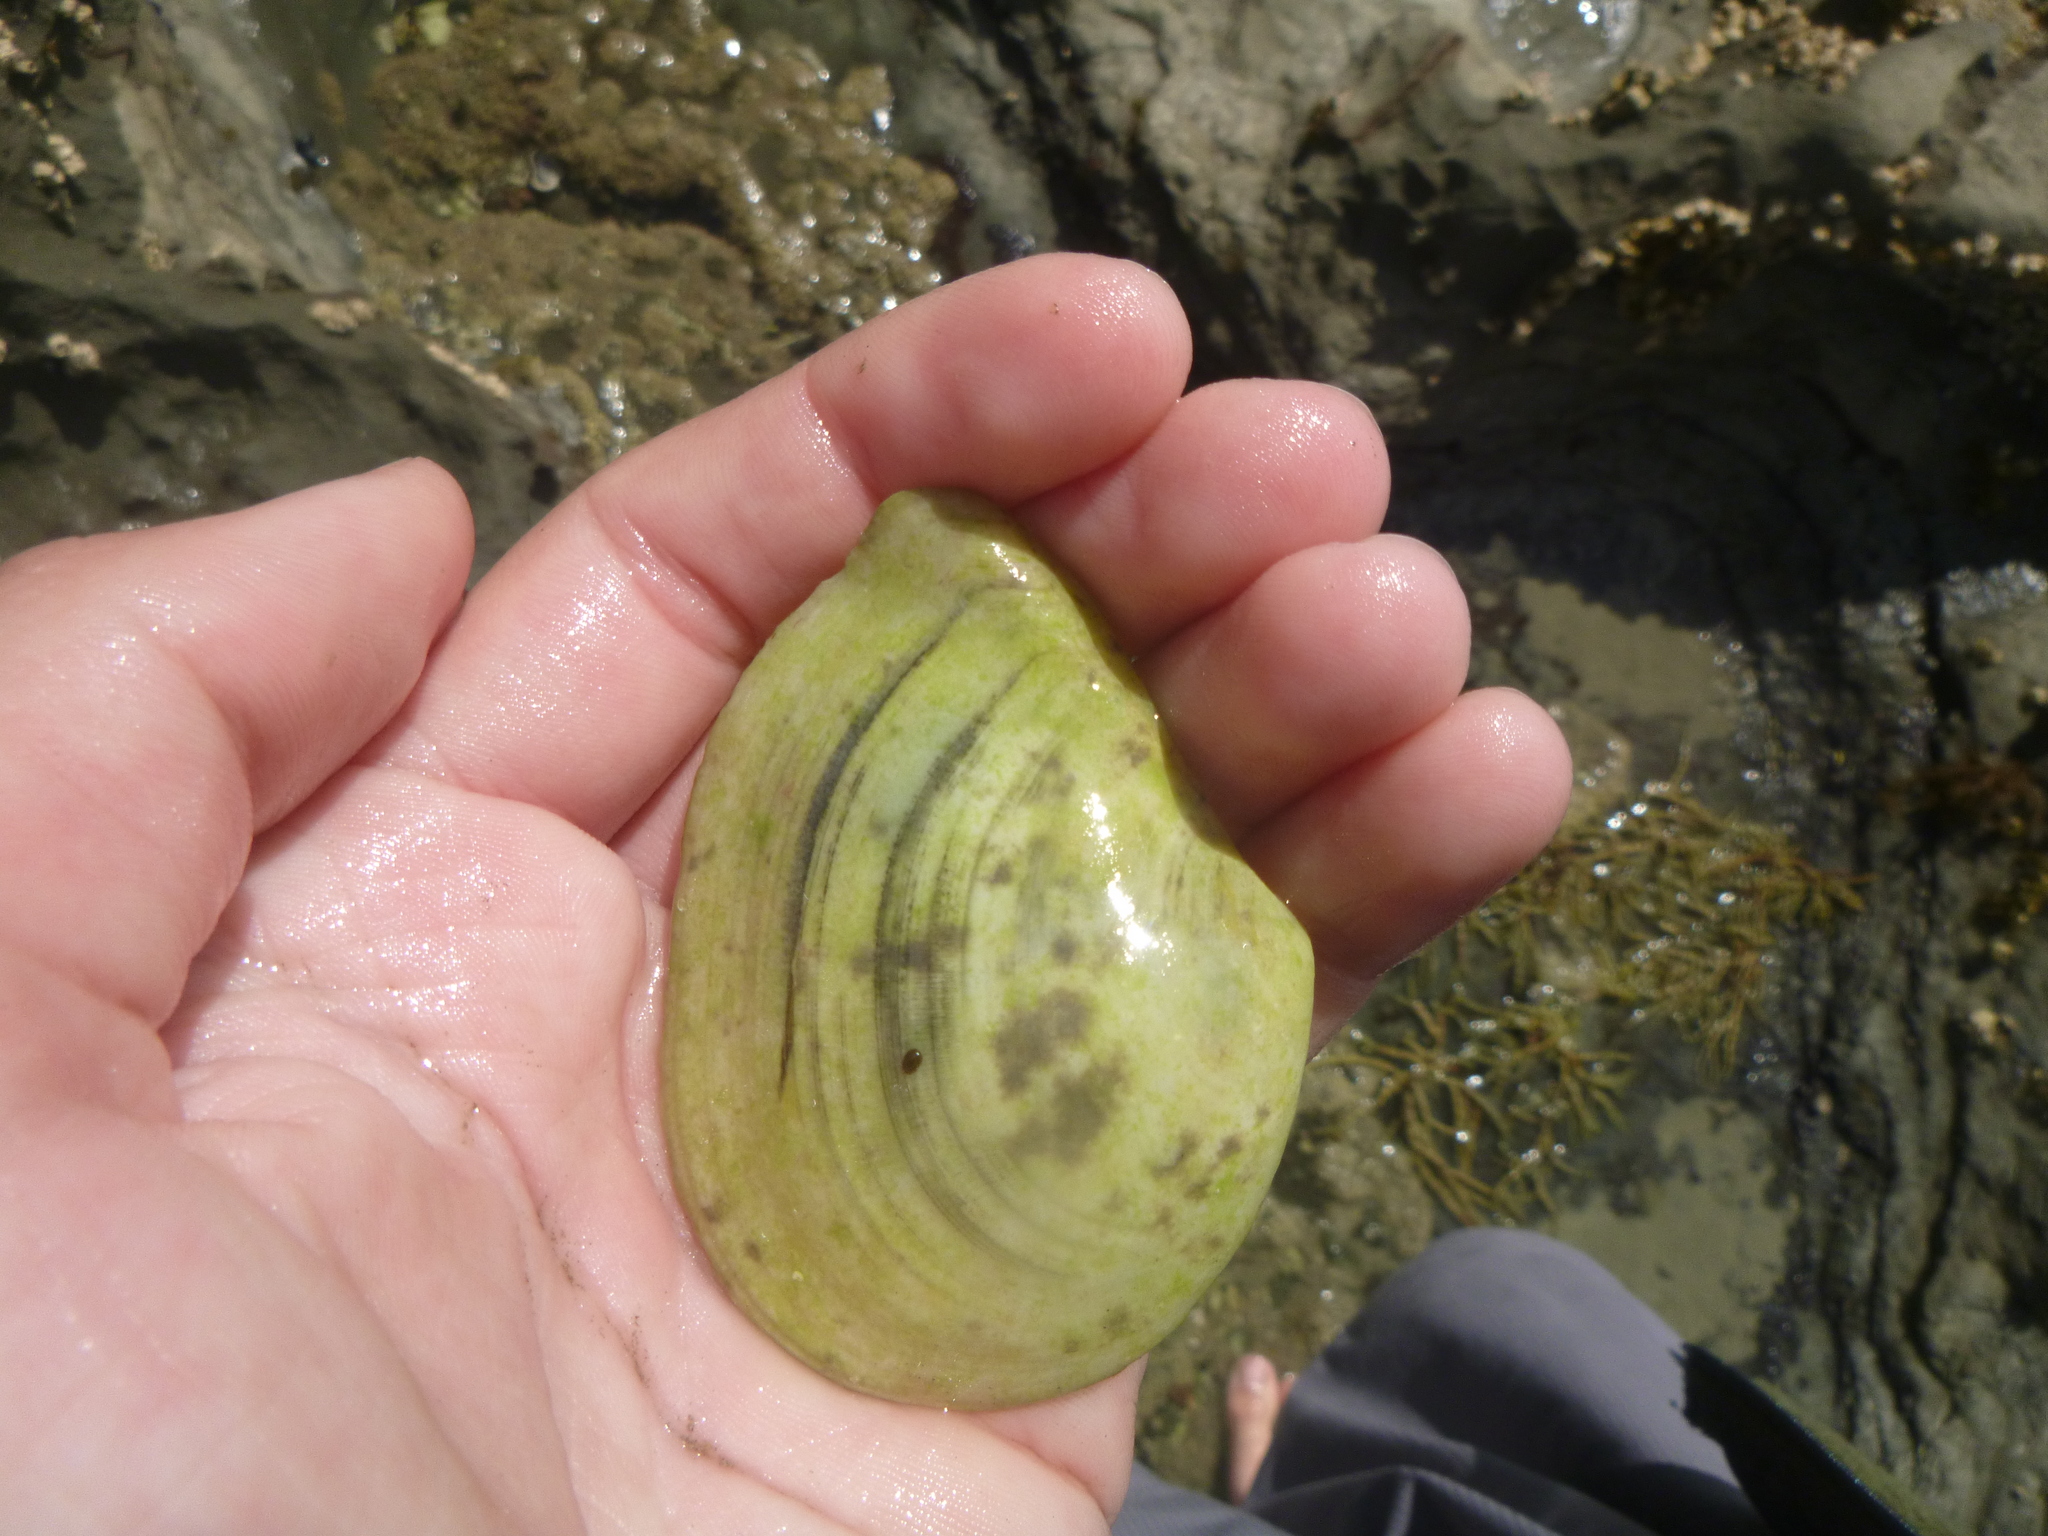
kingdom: Animalia
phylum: Mollusca
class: Bivalvia
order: Cardiida
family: Tellinidae
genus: Macomona
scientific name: Macomona liliana
